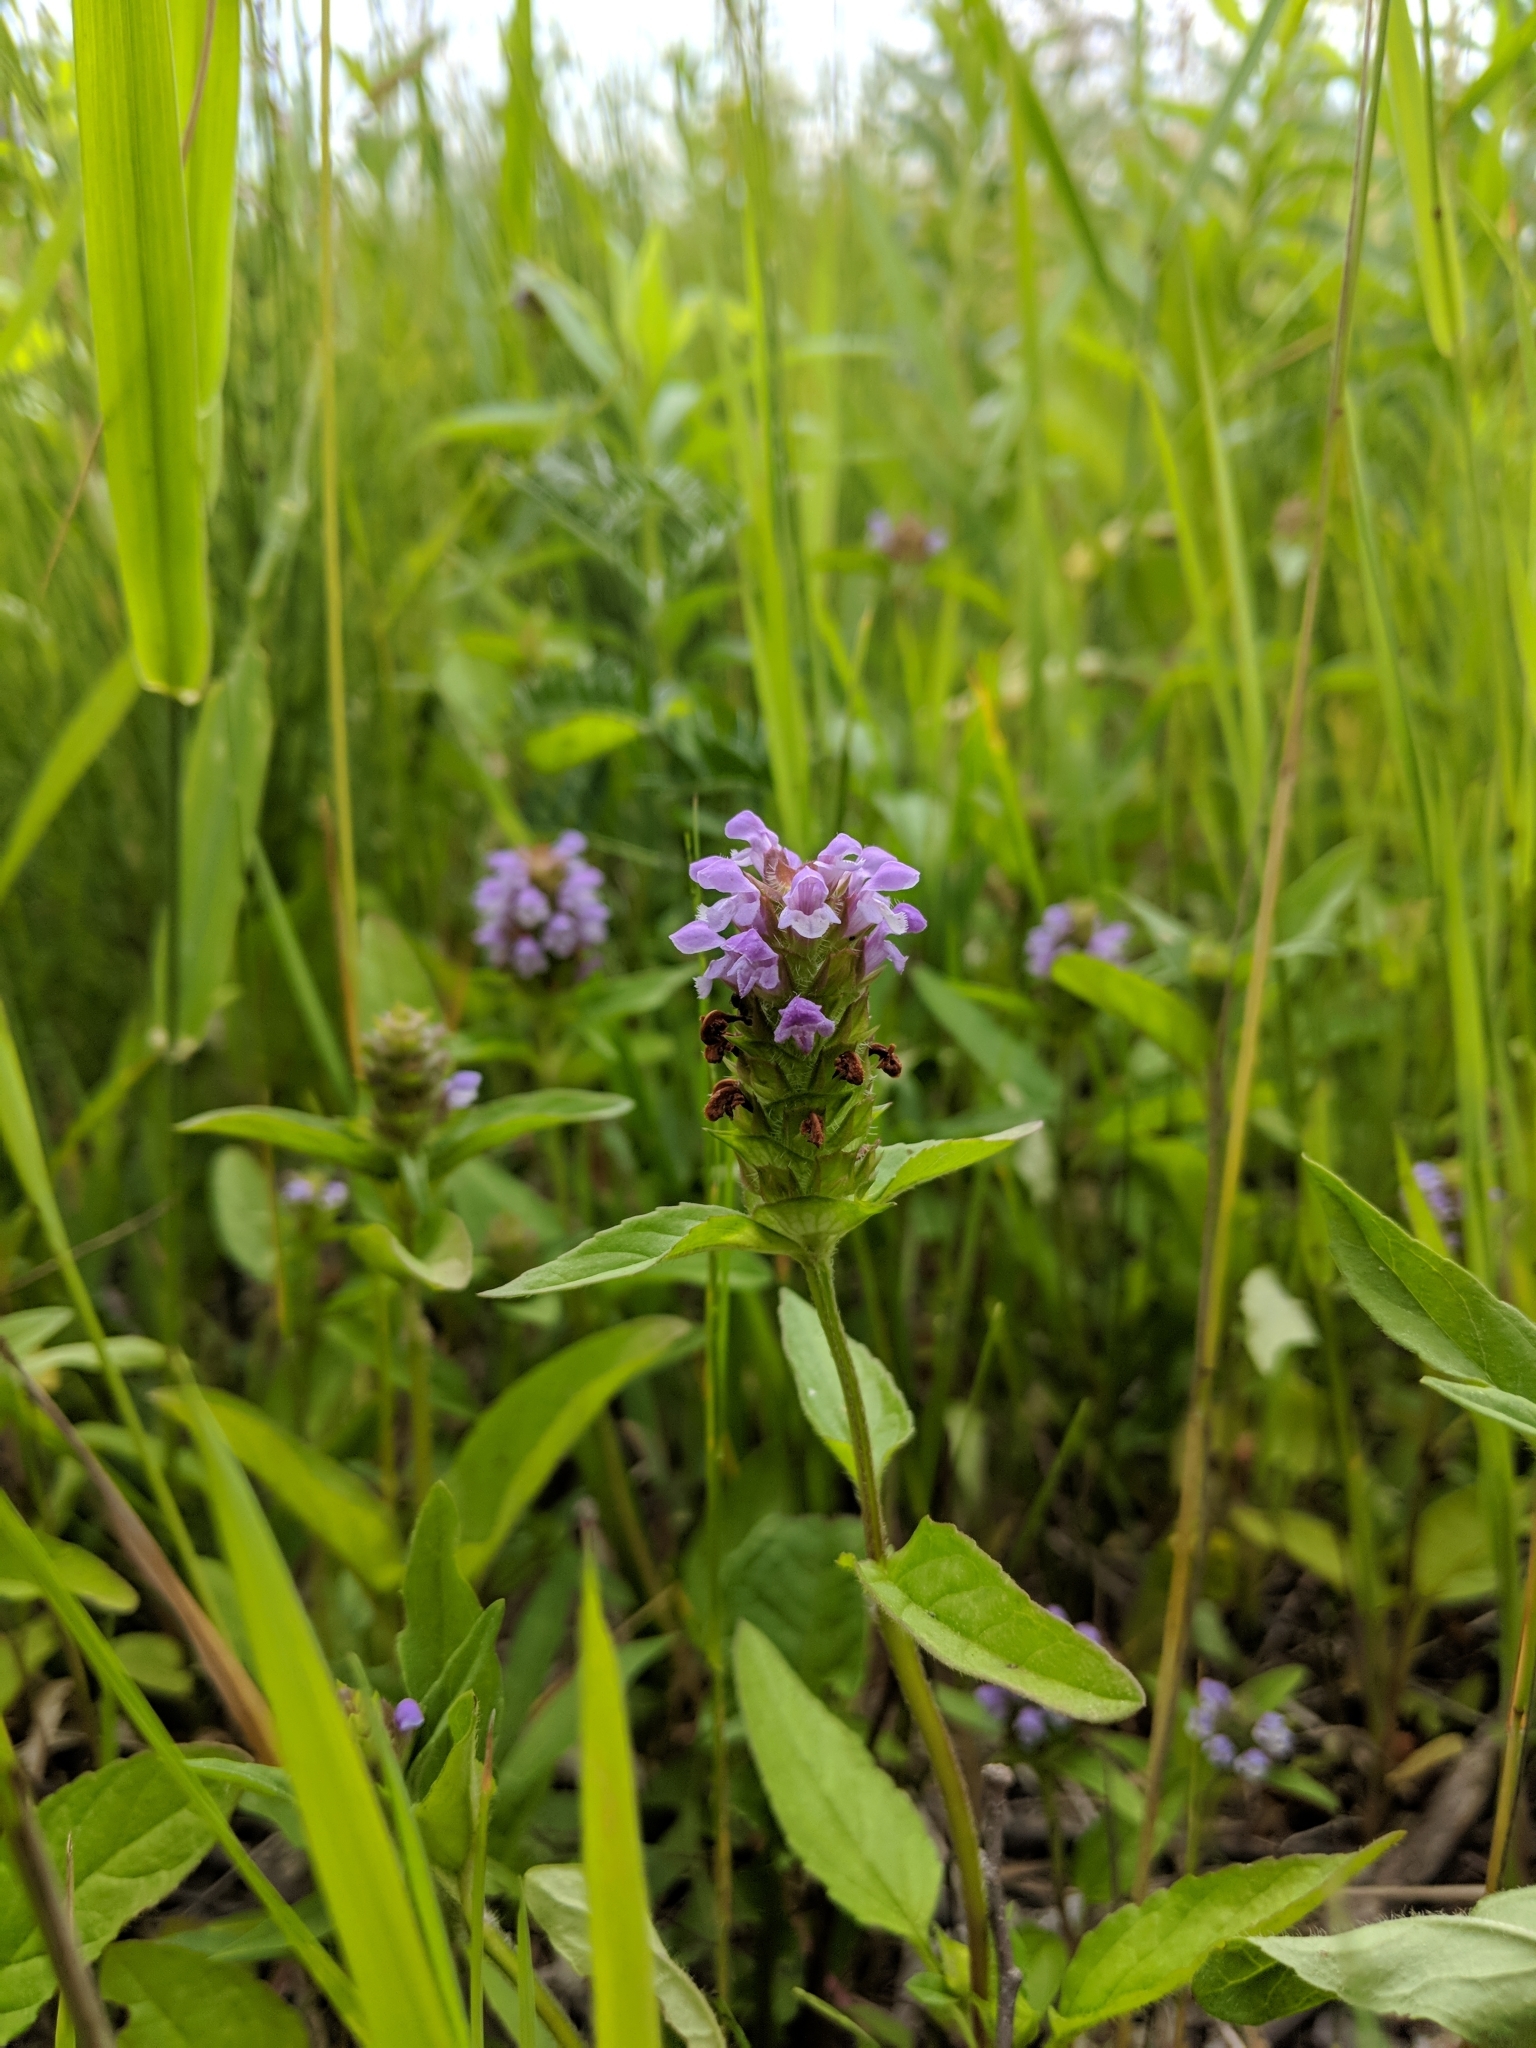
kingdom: Plantae
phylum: Tracheophyta
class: Magnoliopsida
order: Lamiales
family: Lamiaceae
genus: Prunella
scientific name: Prunella vulgaris
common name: Heal-all
